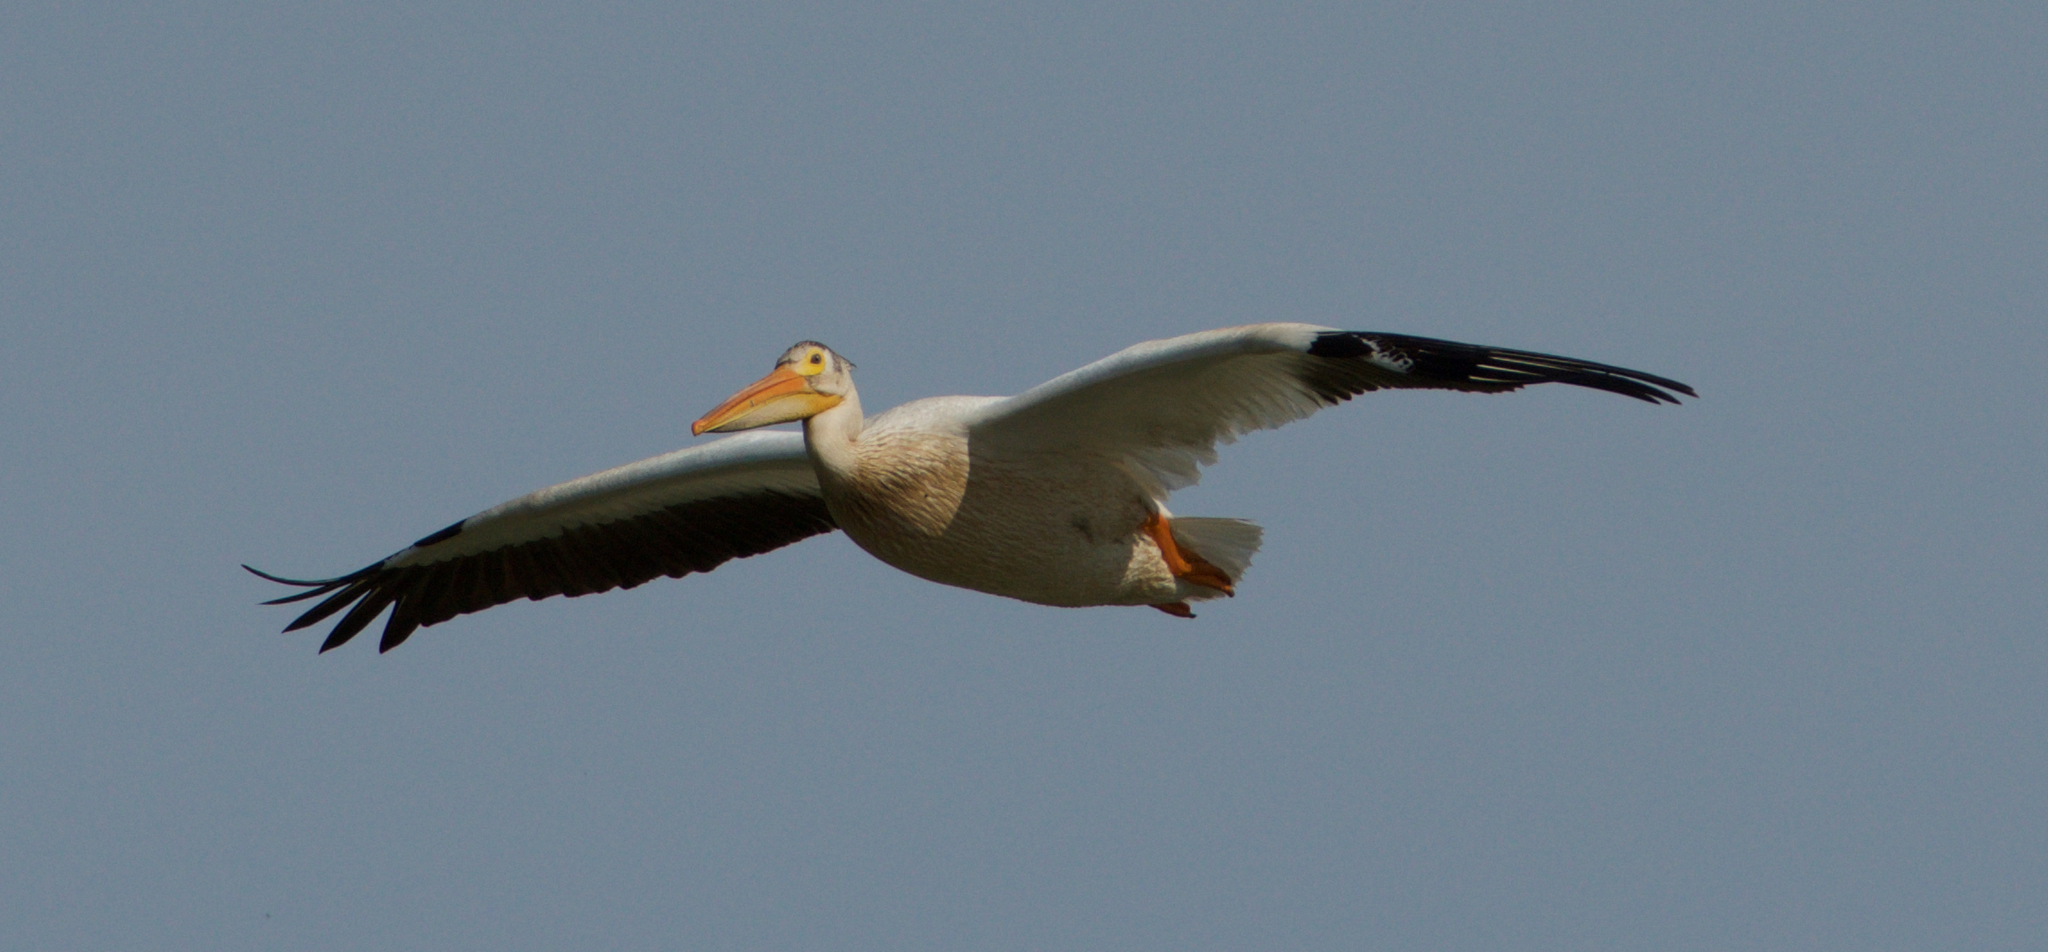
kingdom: Animalia
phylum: Chordata
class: Aves
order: Pelecaniformes
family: Pelecanidae
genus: Pelecanus
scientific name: Pelecanus erythrorhynchos
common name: American white pelican
